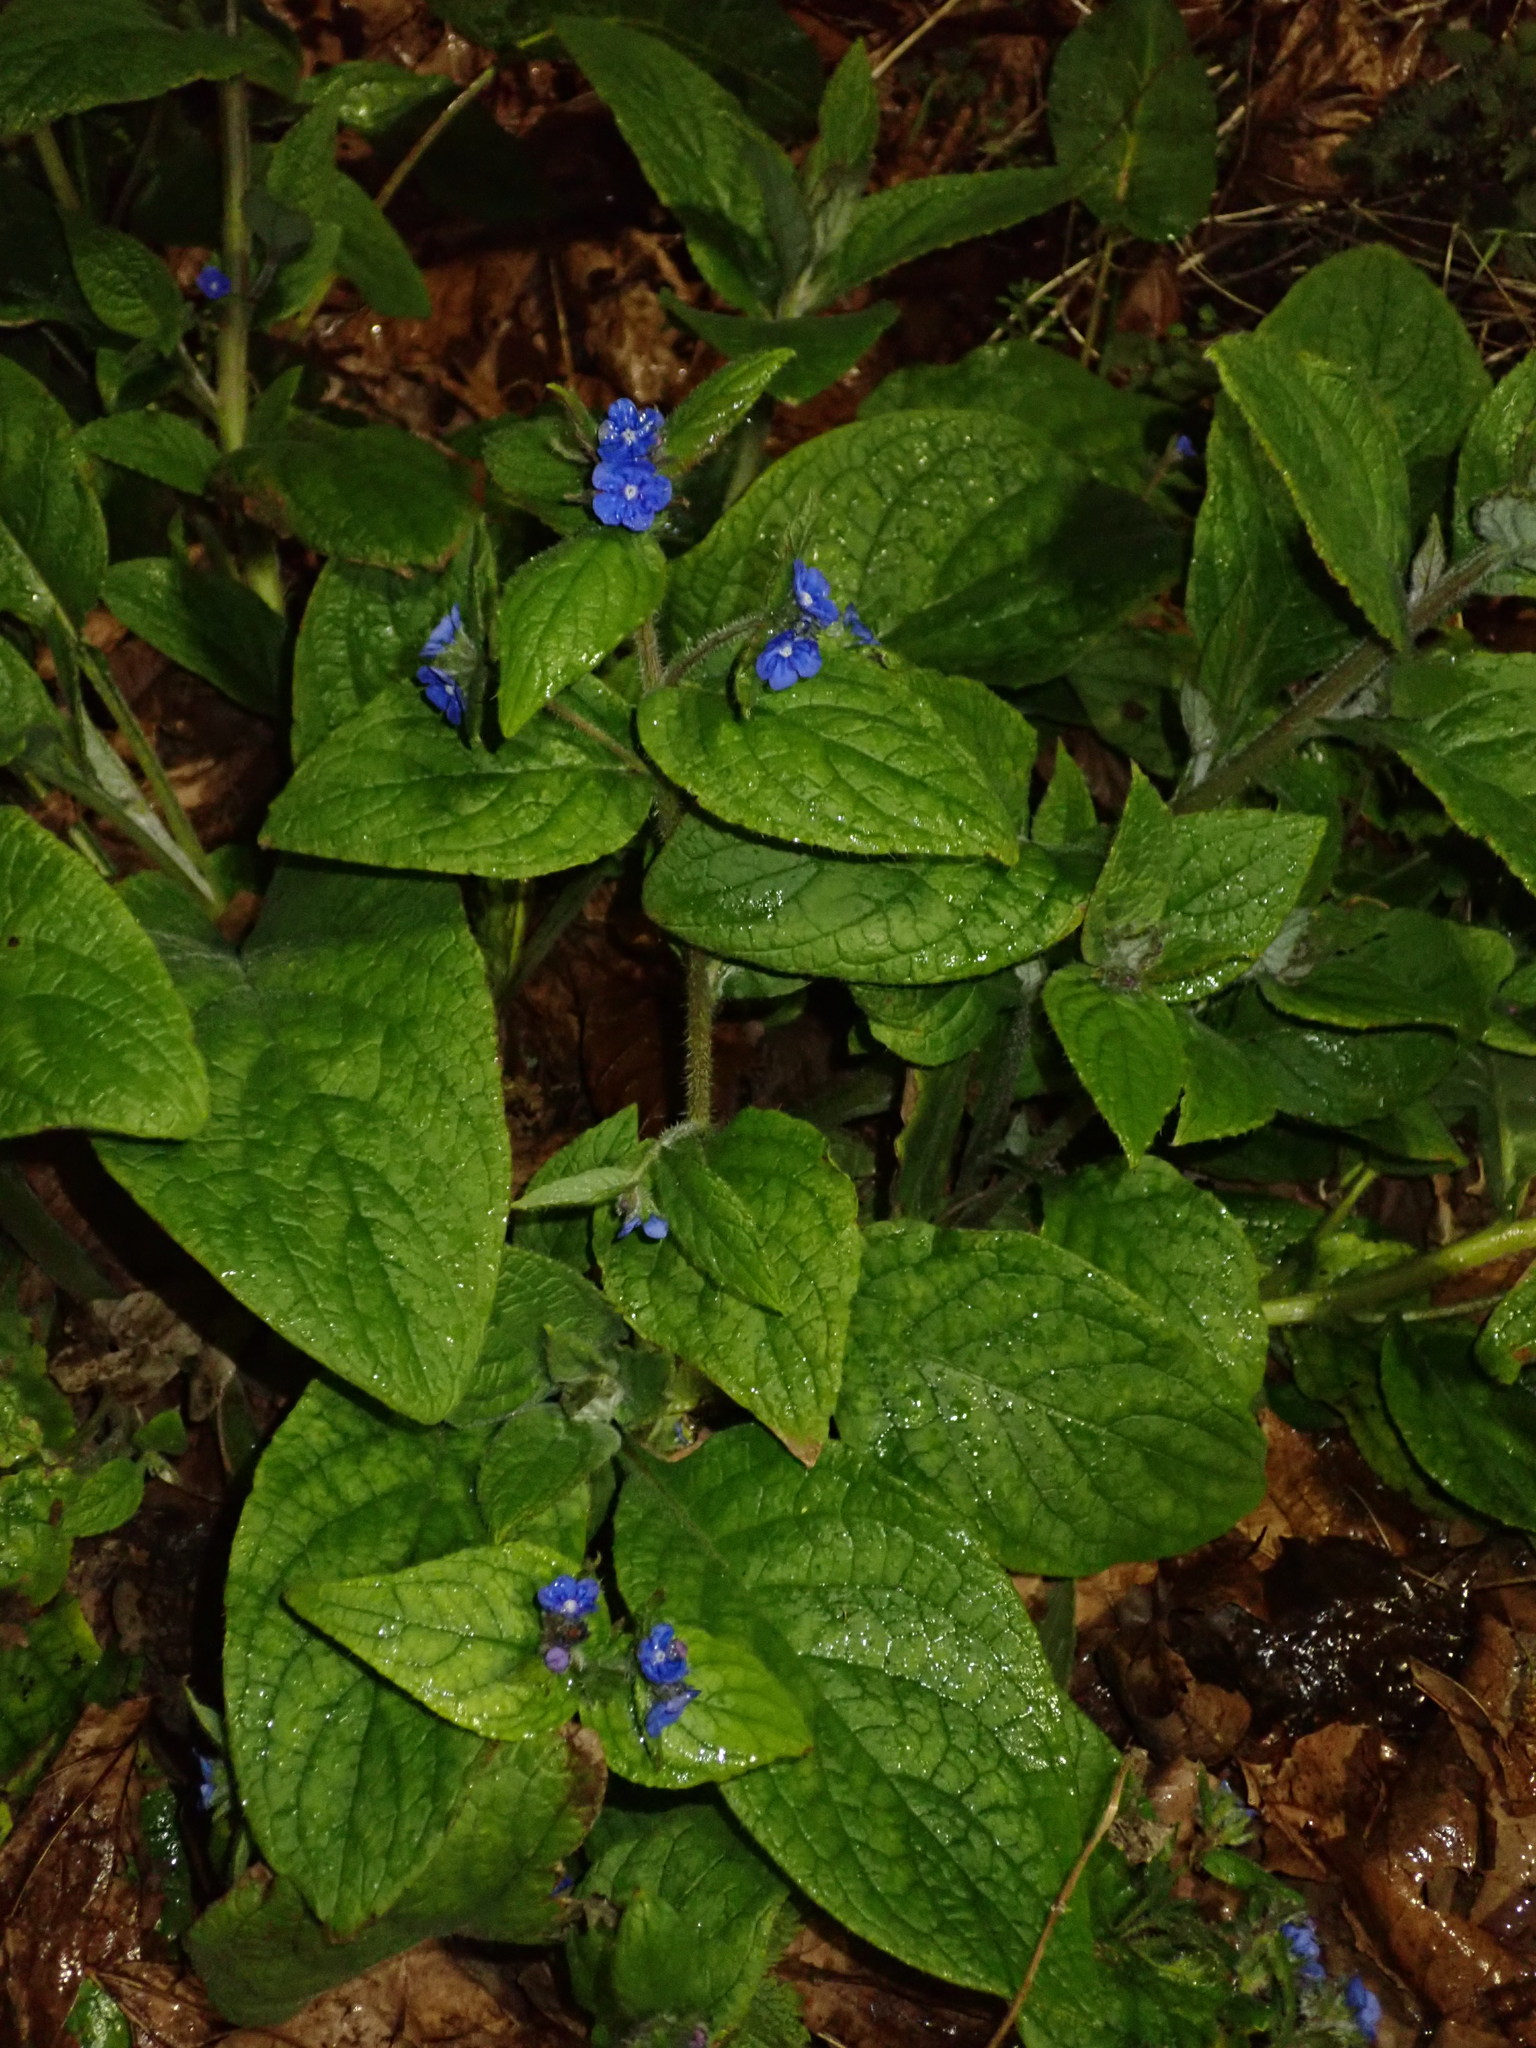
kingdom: Plantae
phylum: Tracheophyta
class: Magnoliopsida
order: Boraginales
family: Boraginaceae
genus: Pentaglottis
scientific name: Pentaglottis sempervirens
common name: Green alkanet
